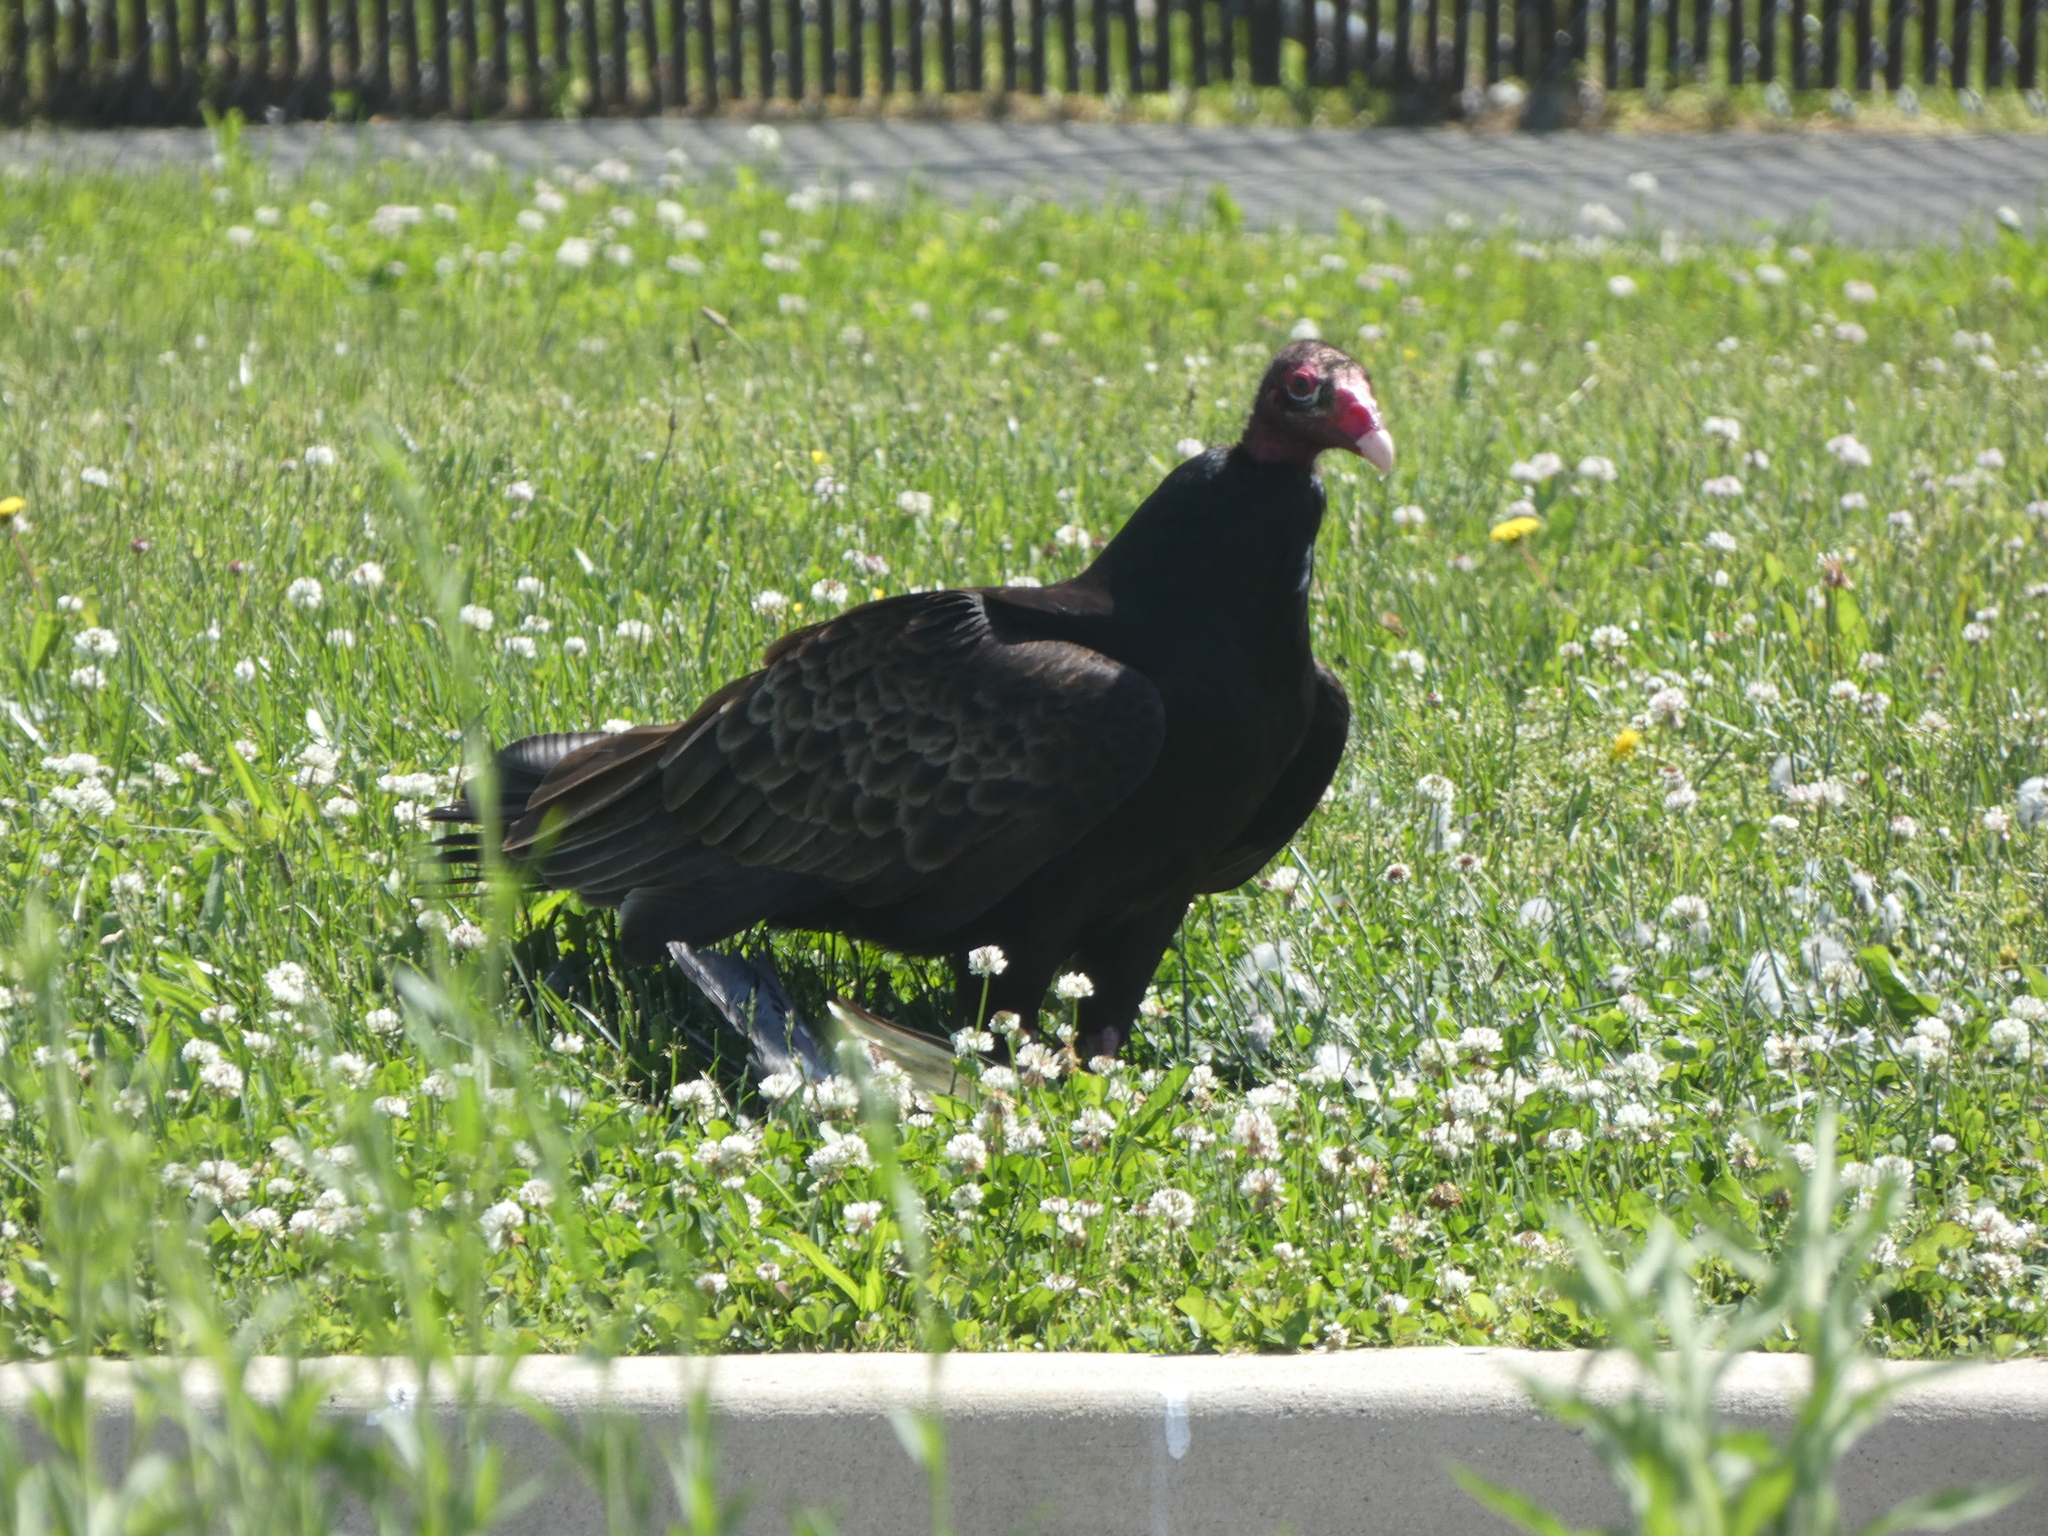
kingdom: Animalia
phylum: Chordata
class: Aves
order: Accipitriformes
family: Cathartidae
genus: Cathartes
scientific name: Cathartes aura
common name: Turkey vulture
